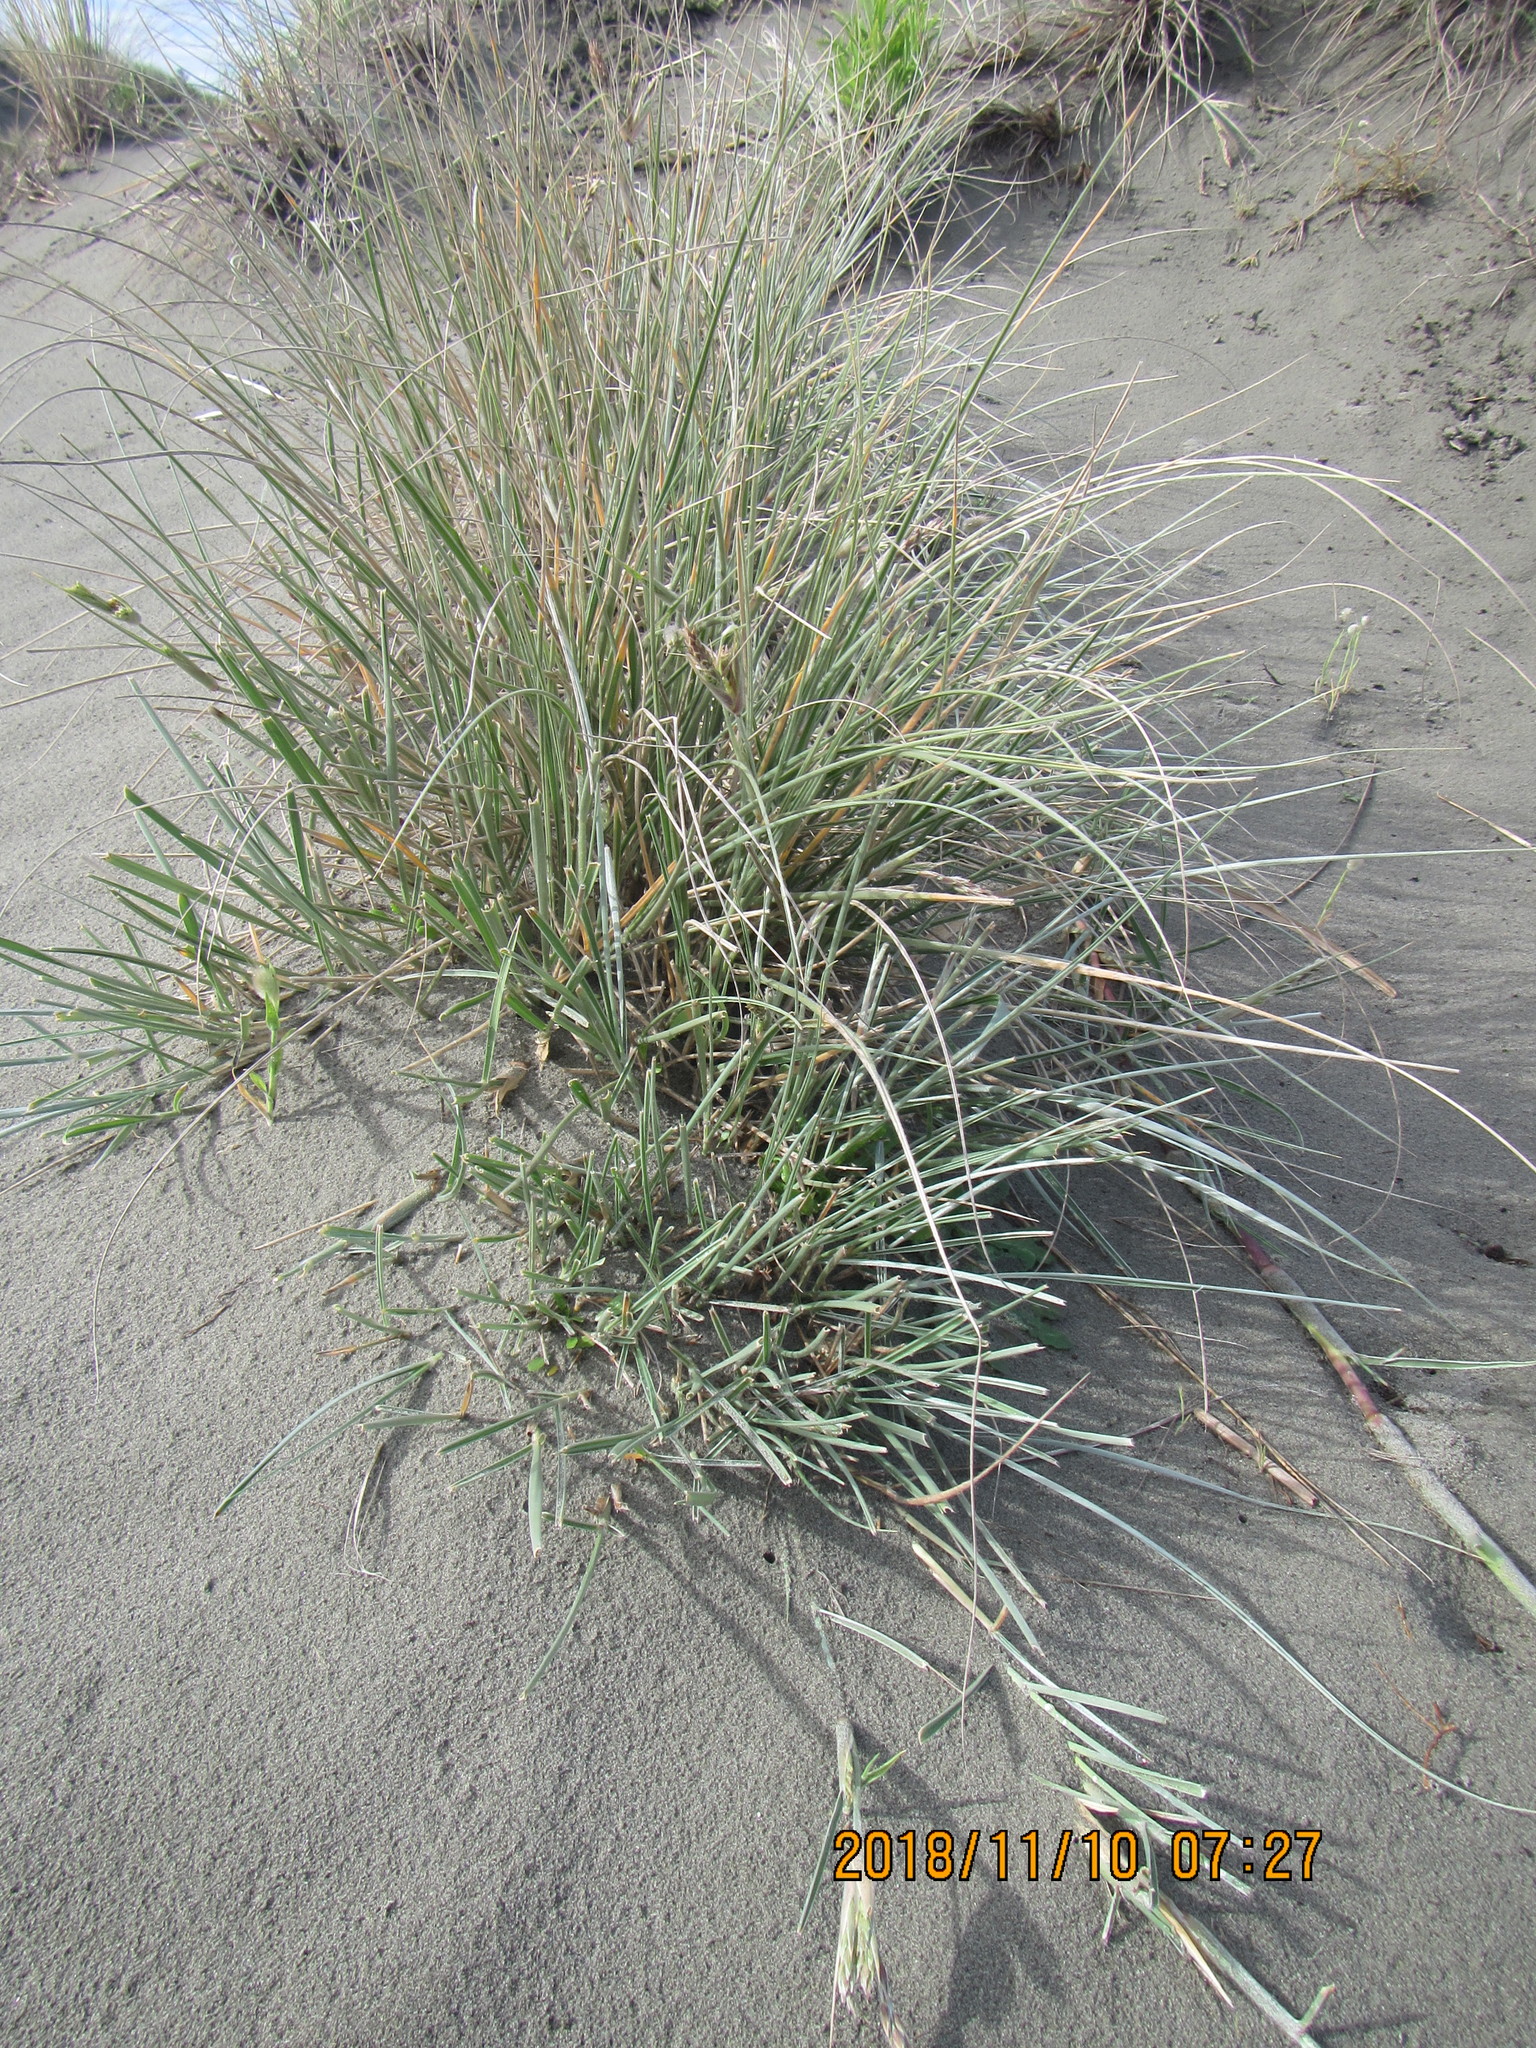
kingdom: Plantae
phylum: Tracheophyta
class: Liliopsida
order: Poales
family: Poaceae
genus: Spinifex
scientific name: Spinifex sericeus
